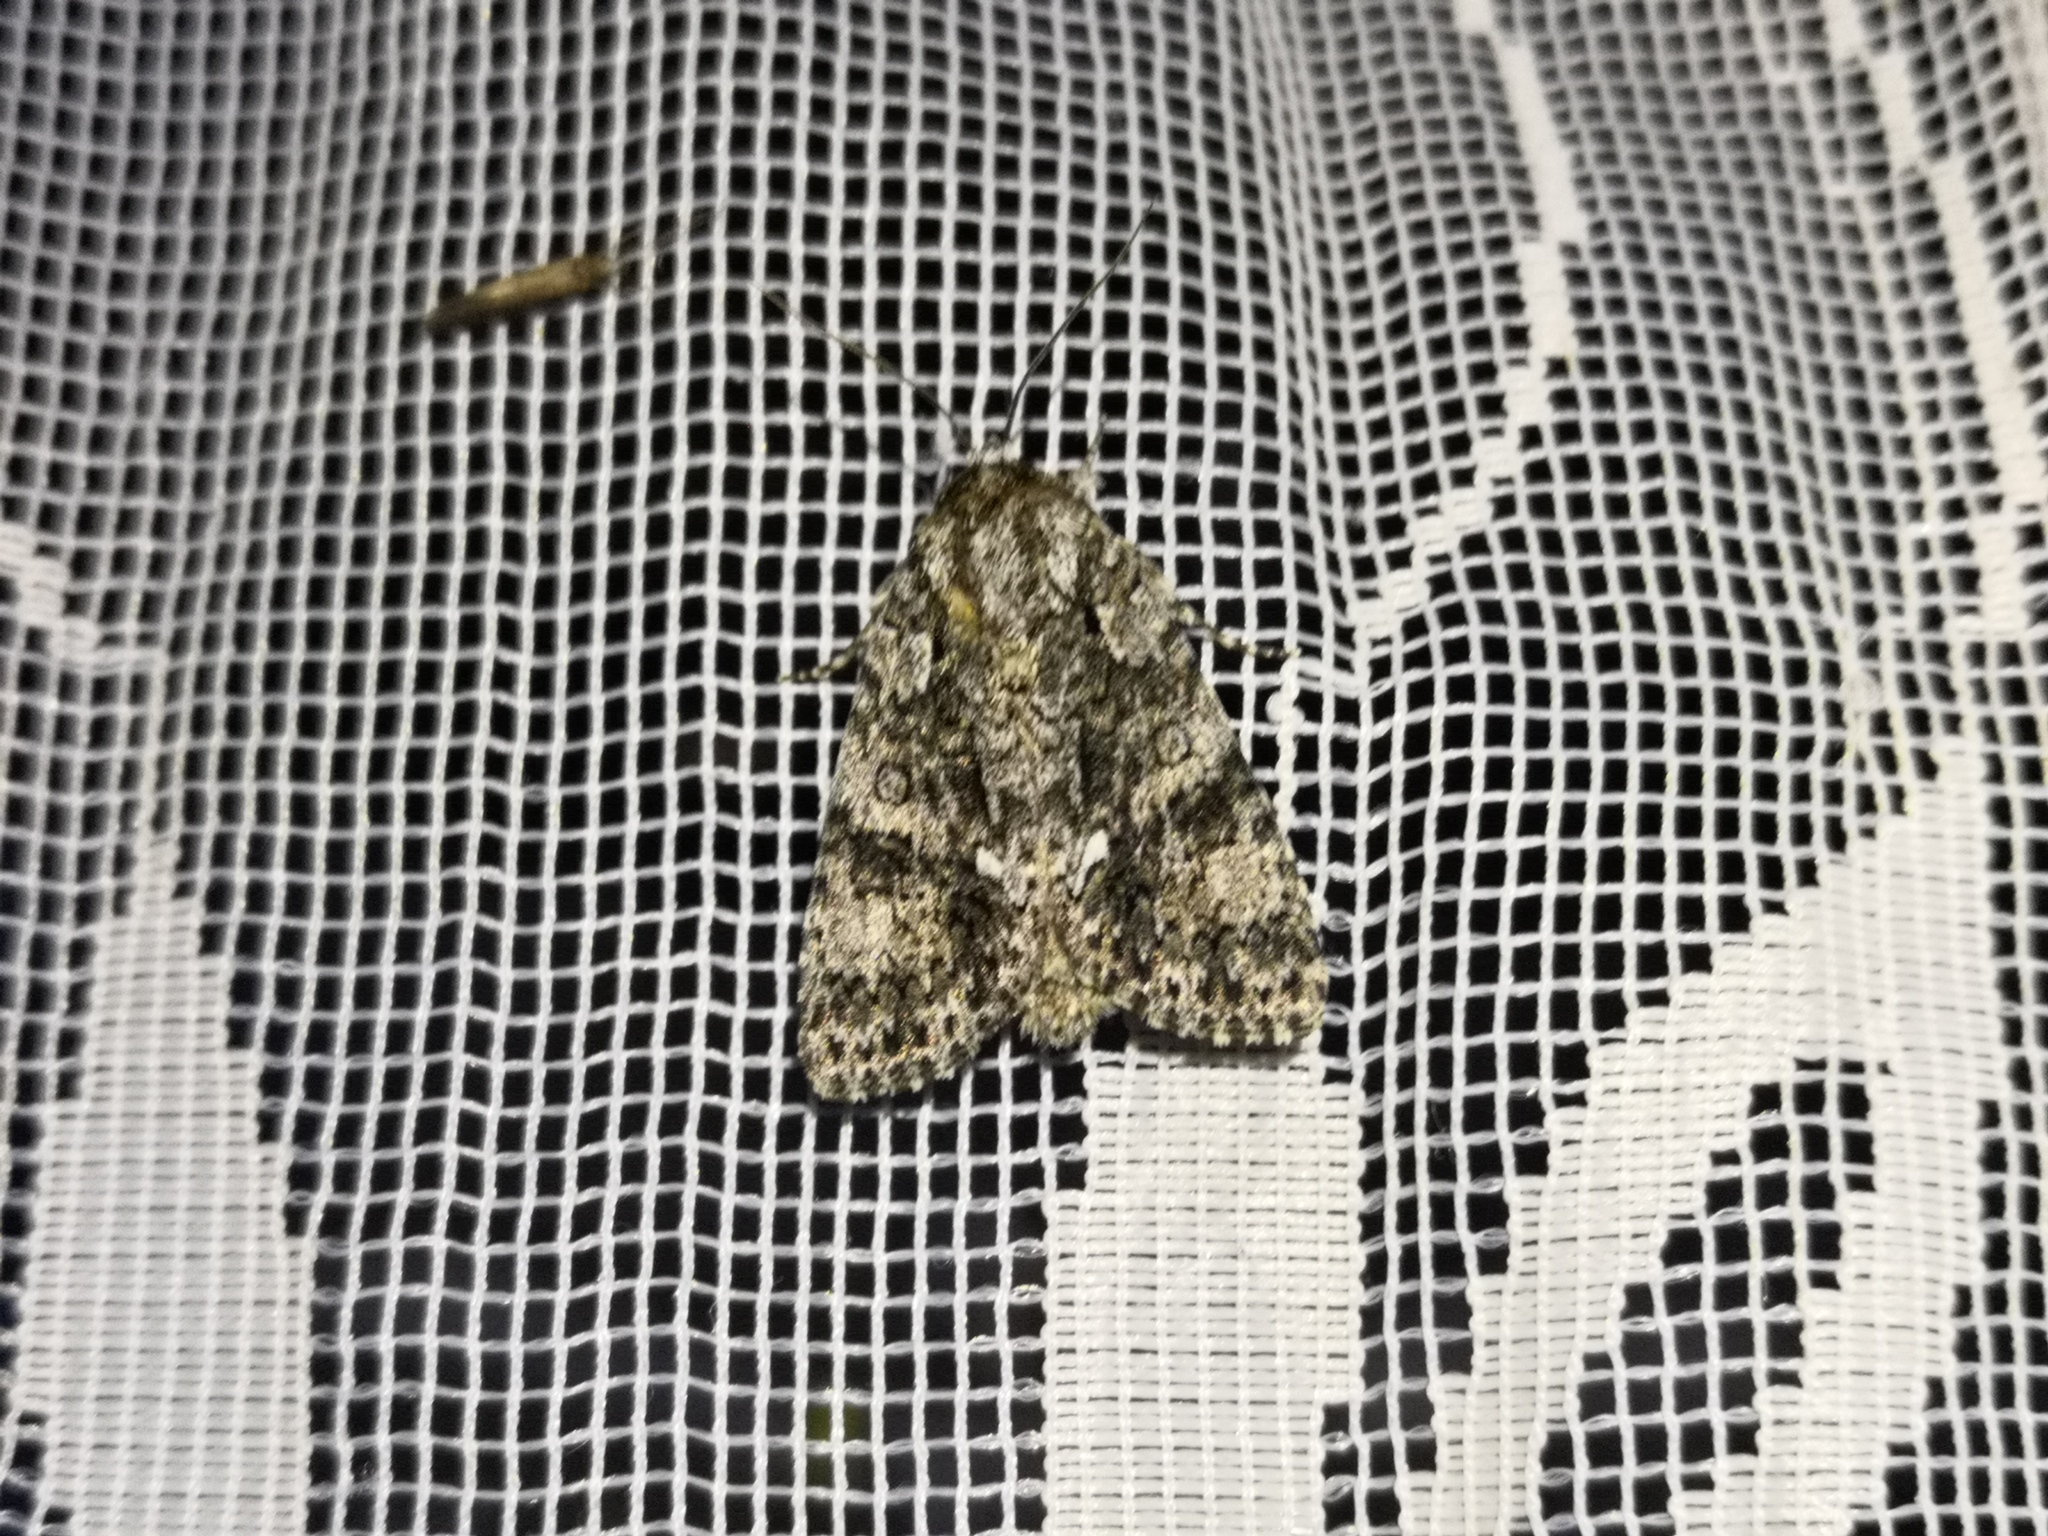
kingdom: Animalia
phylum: Arthropoda
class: Insecta
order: Lepidoptera
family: Noctuidae
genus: Acronicta
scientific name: Acronicta rumicis
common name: Knot grass
